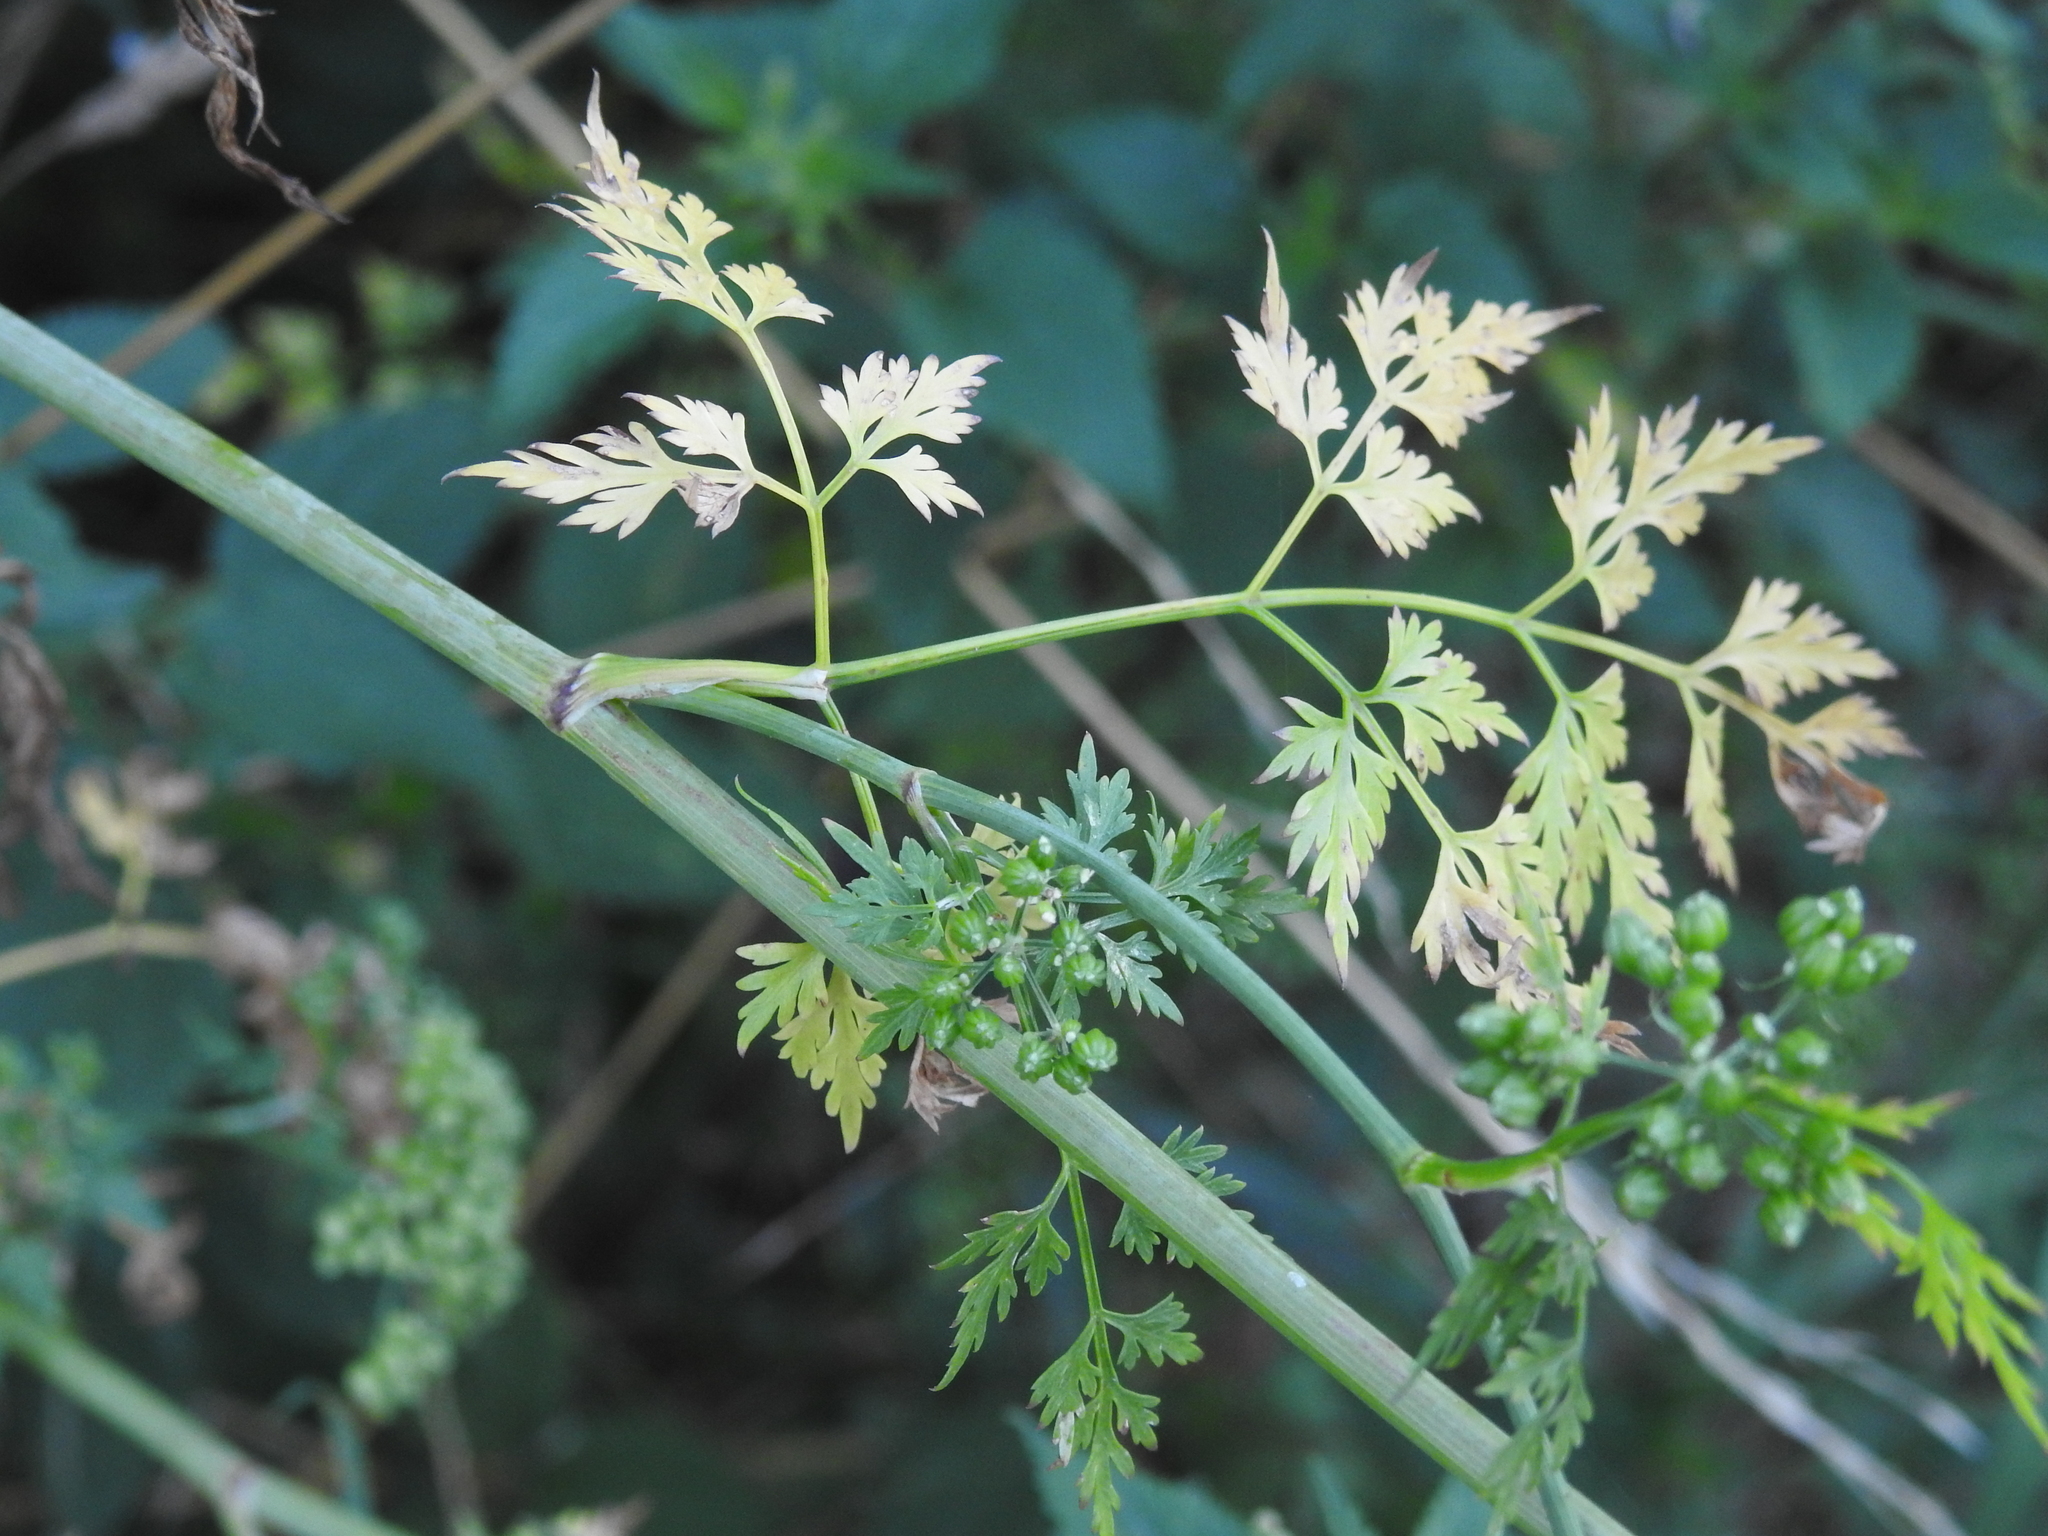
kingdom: Plantae
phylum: Tracheophyta
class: Magnoliopsida
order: Apiales
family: Apiaceae
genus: Aethusa
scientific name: Aethusa cynapium
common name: Fool's parsley
